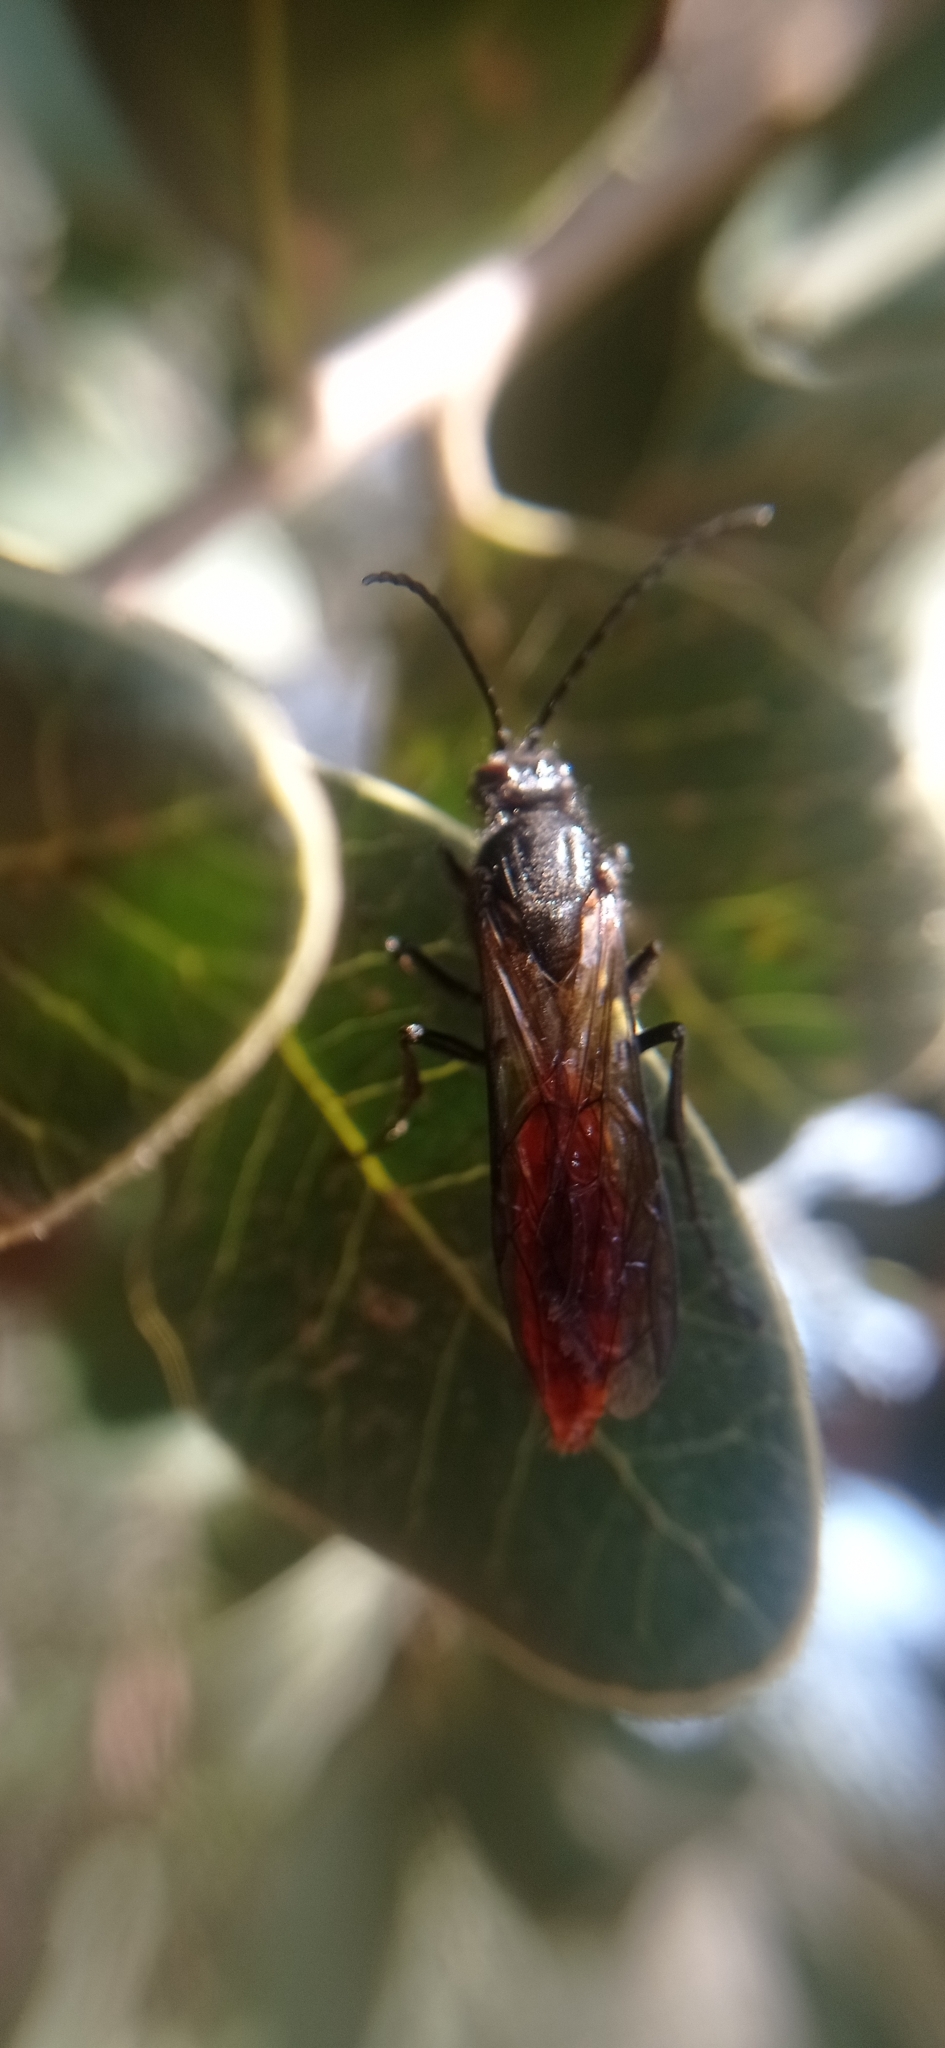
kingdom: Animalia
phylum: Arthropoda
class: Insecta
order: Hymenoptera
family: Tiphiidae
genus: Elaphroptera
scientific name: Elaphroptera
